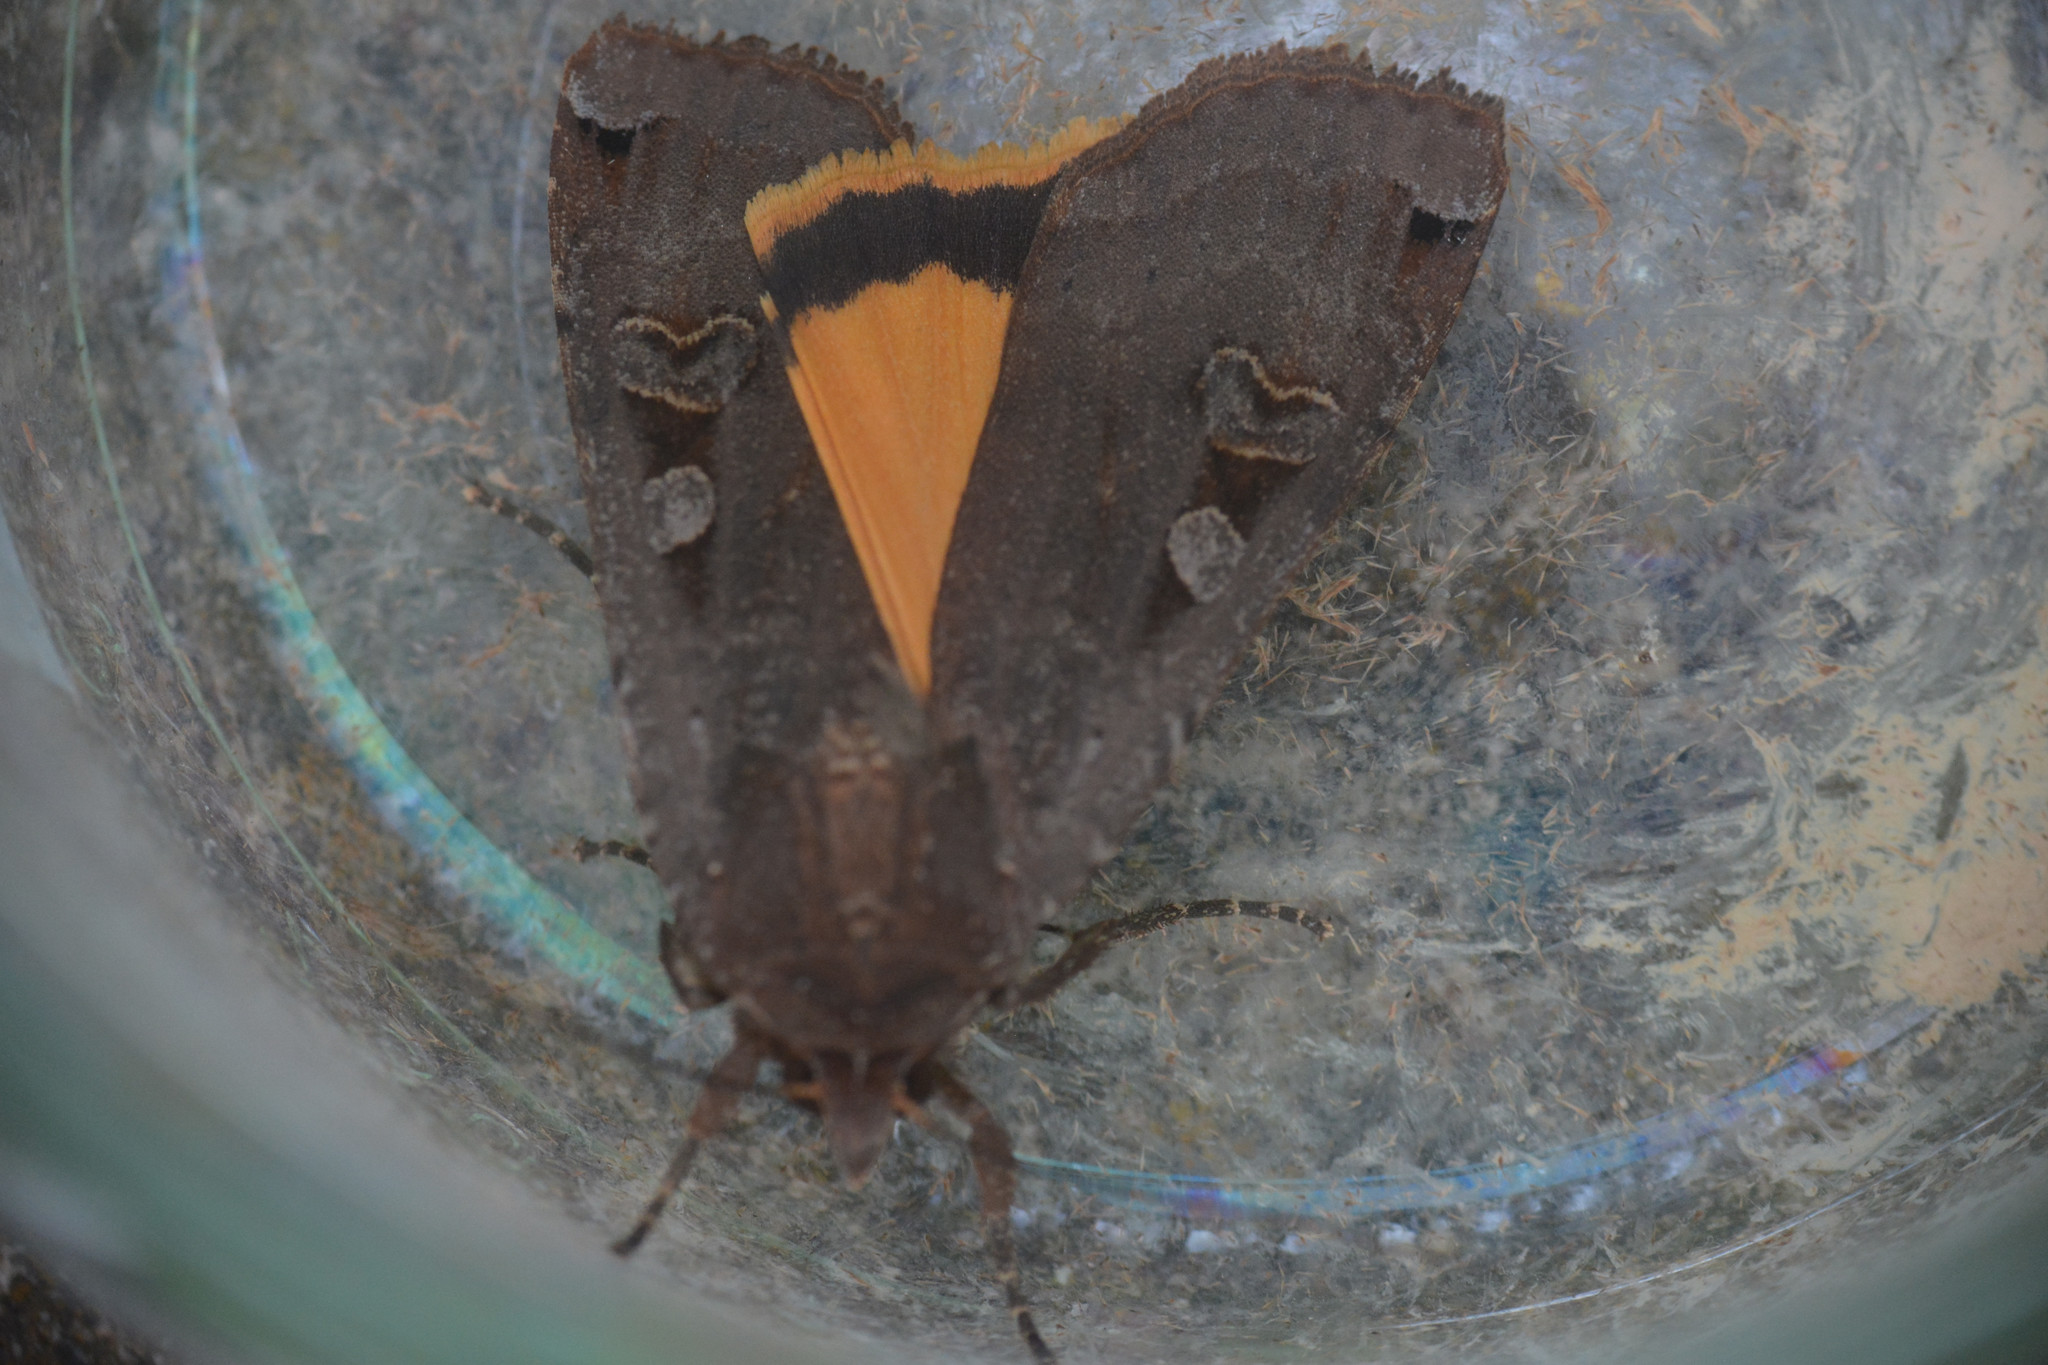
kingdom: Animalia
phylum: Arthropoda
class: Insecta
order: Lepidoptera
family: Noctuidae
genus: Noctua
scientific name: Noctua pronuba
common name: Large yellow underwing
